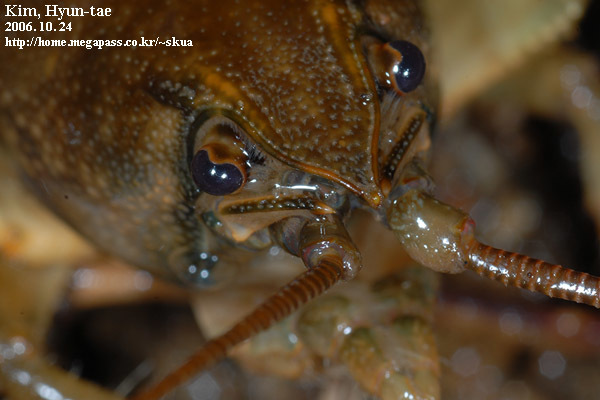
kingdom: Animalia
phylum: Arthropoda
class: Malacostraca
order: Decapoda
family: Cambaroididae
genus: Cambaroides
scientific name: Cambaroides similis
